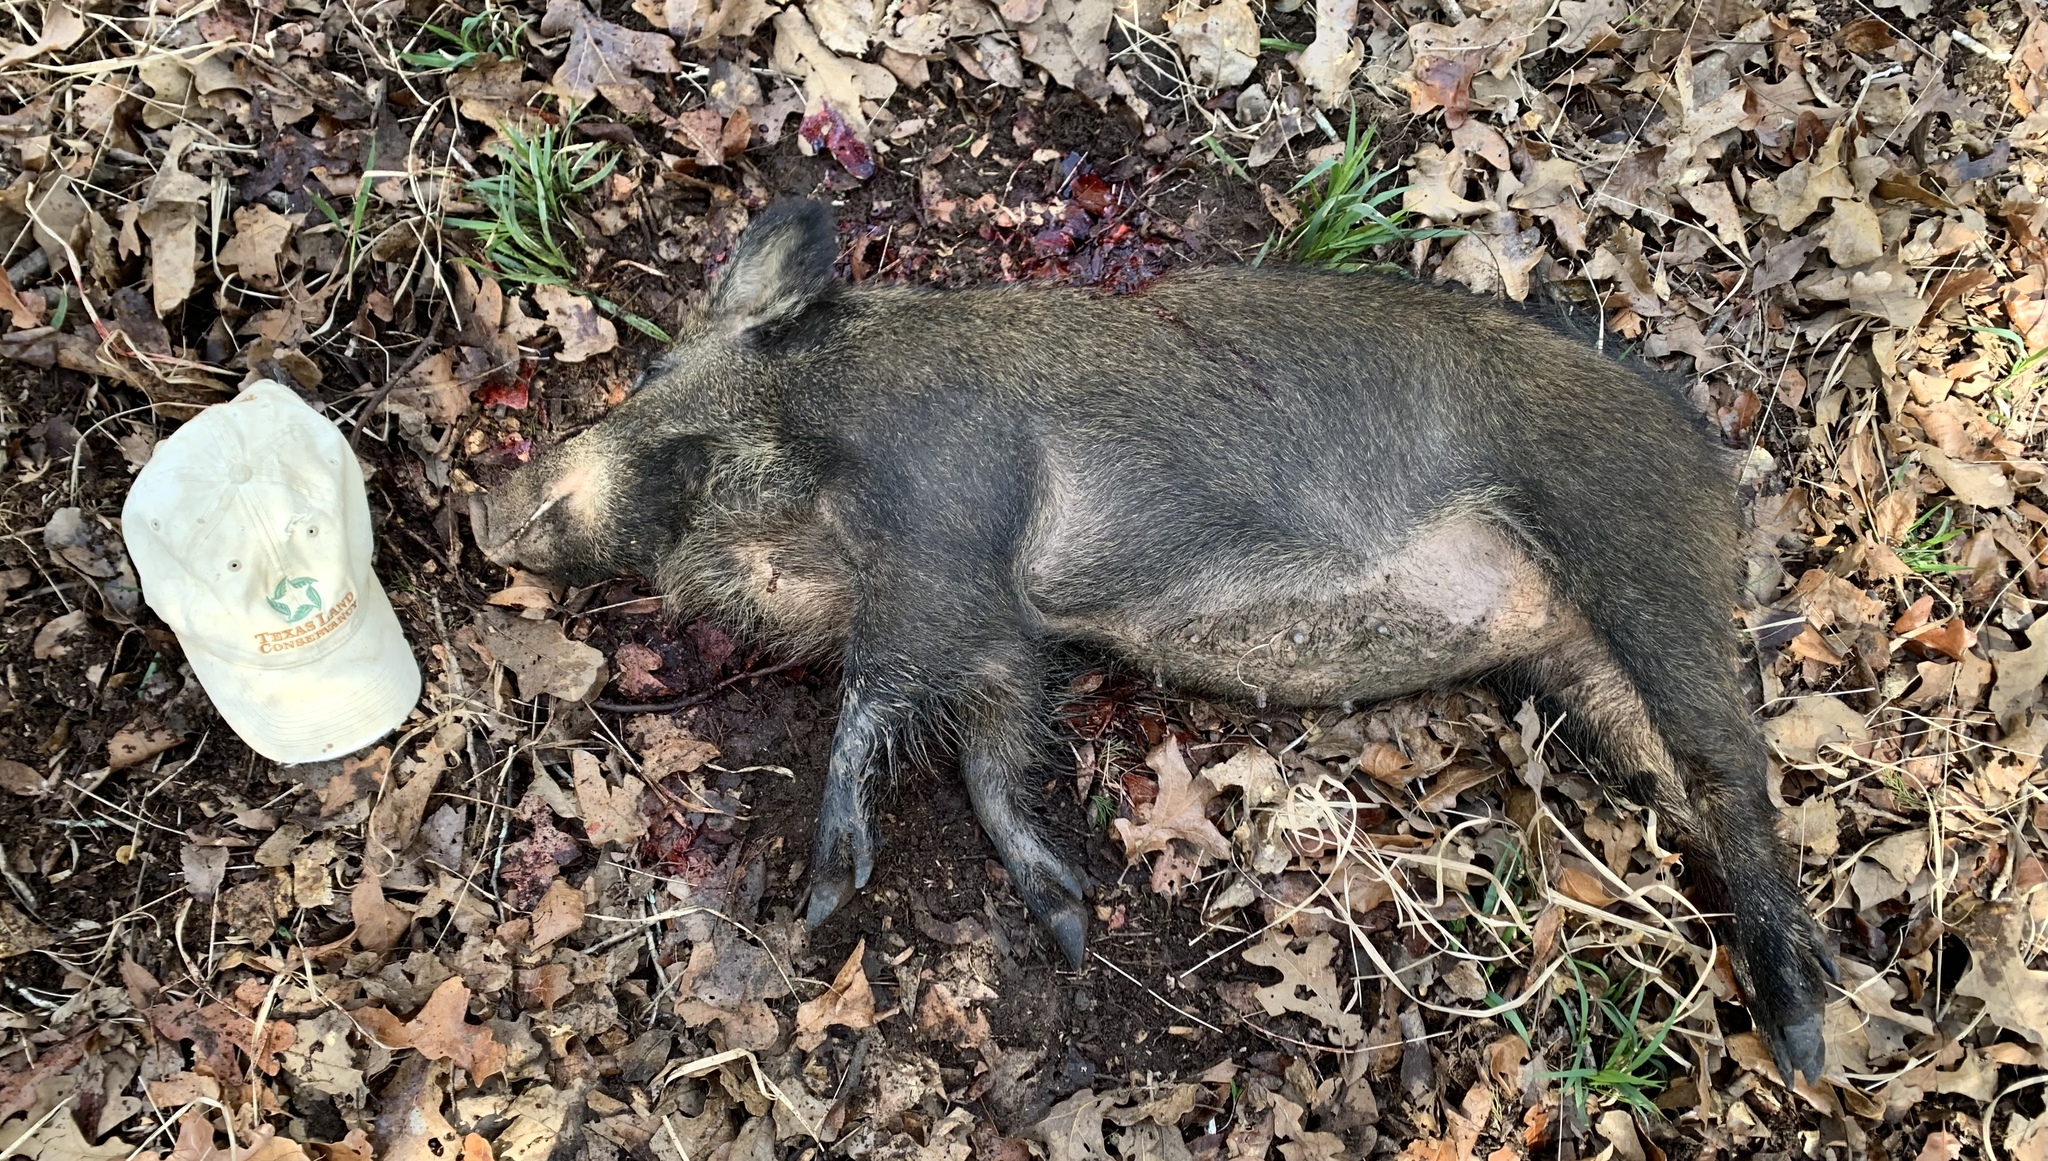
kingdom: Animalia
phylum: Chordata
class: Mammalia
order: Artiodactyla
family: Suidae
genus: Sus
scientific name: Sus scrofa
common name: Wild boar
